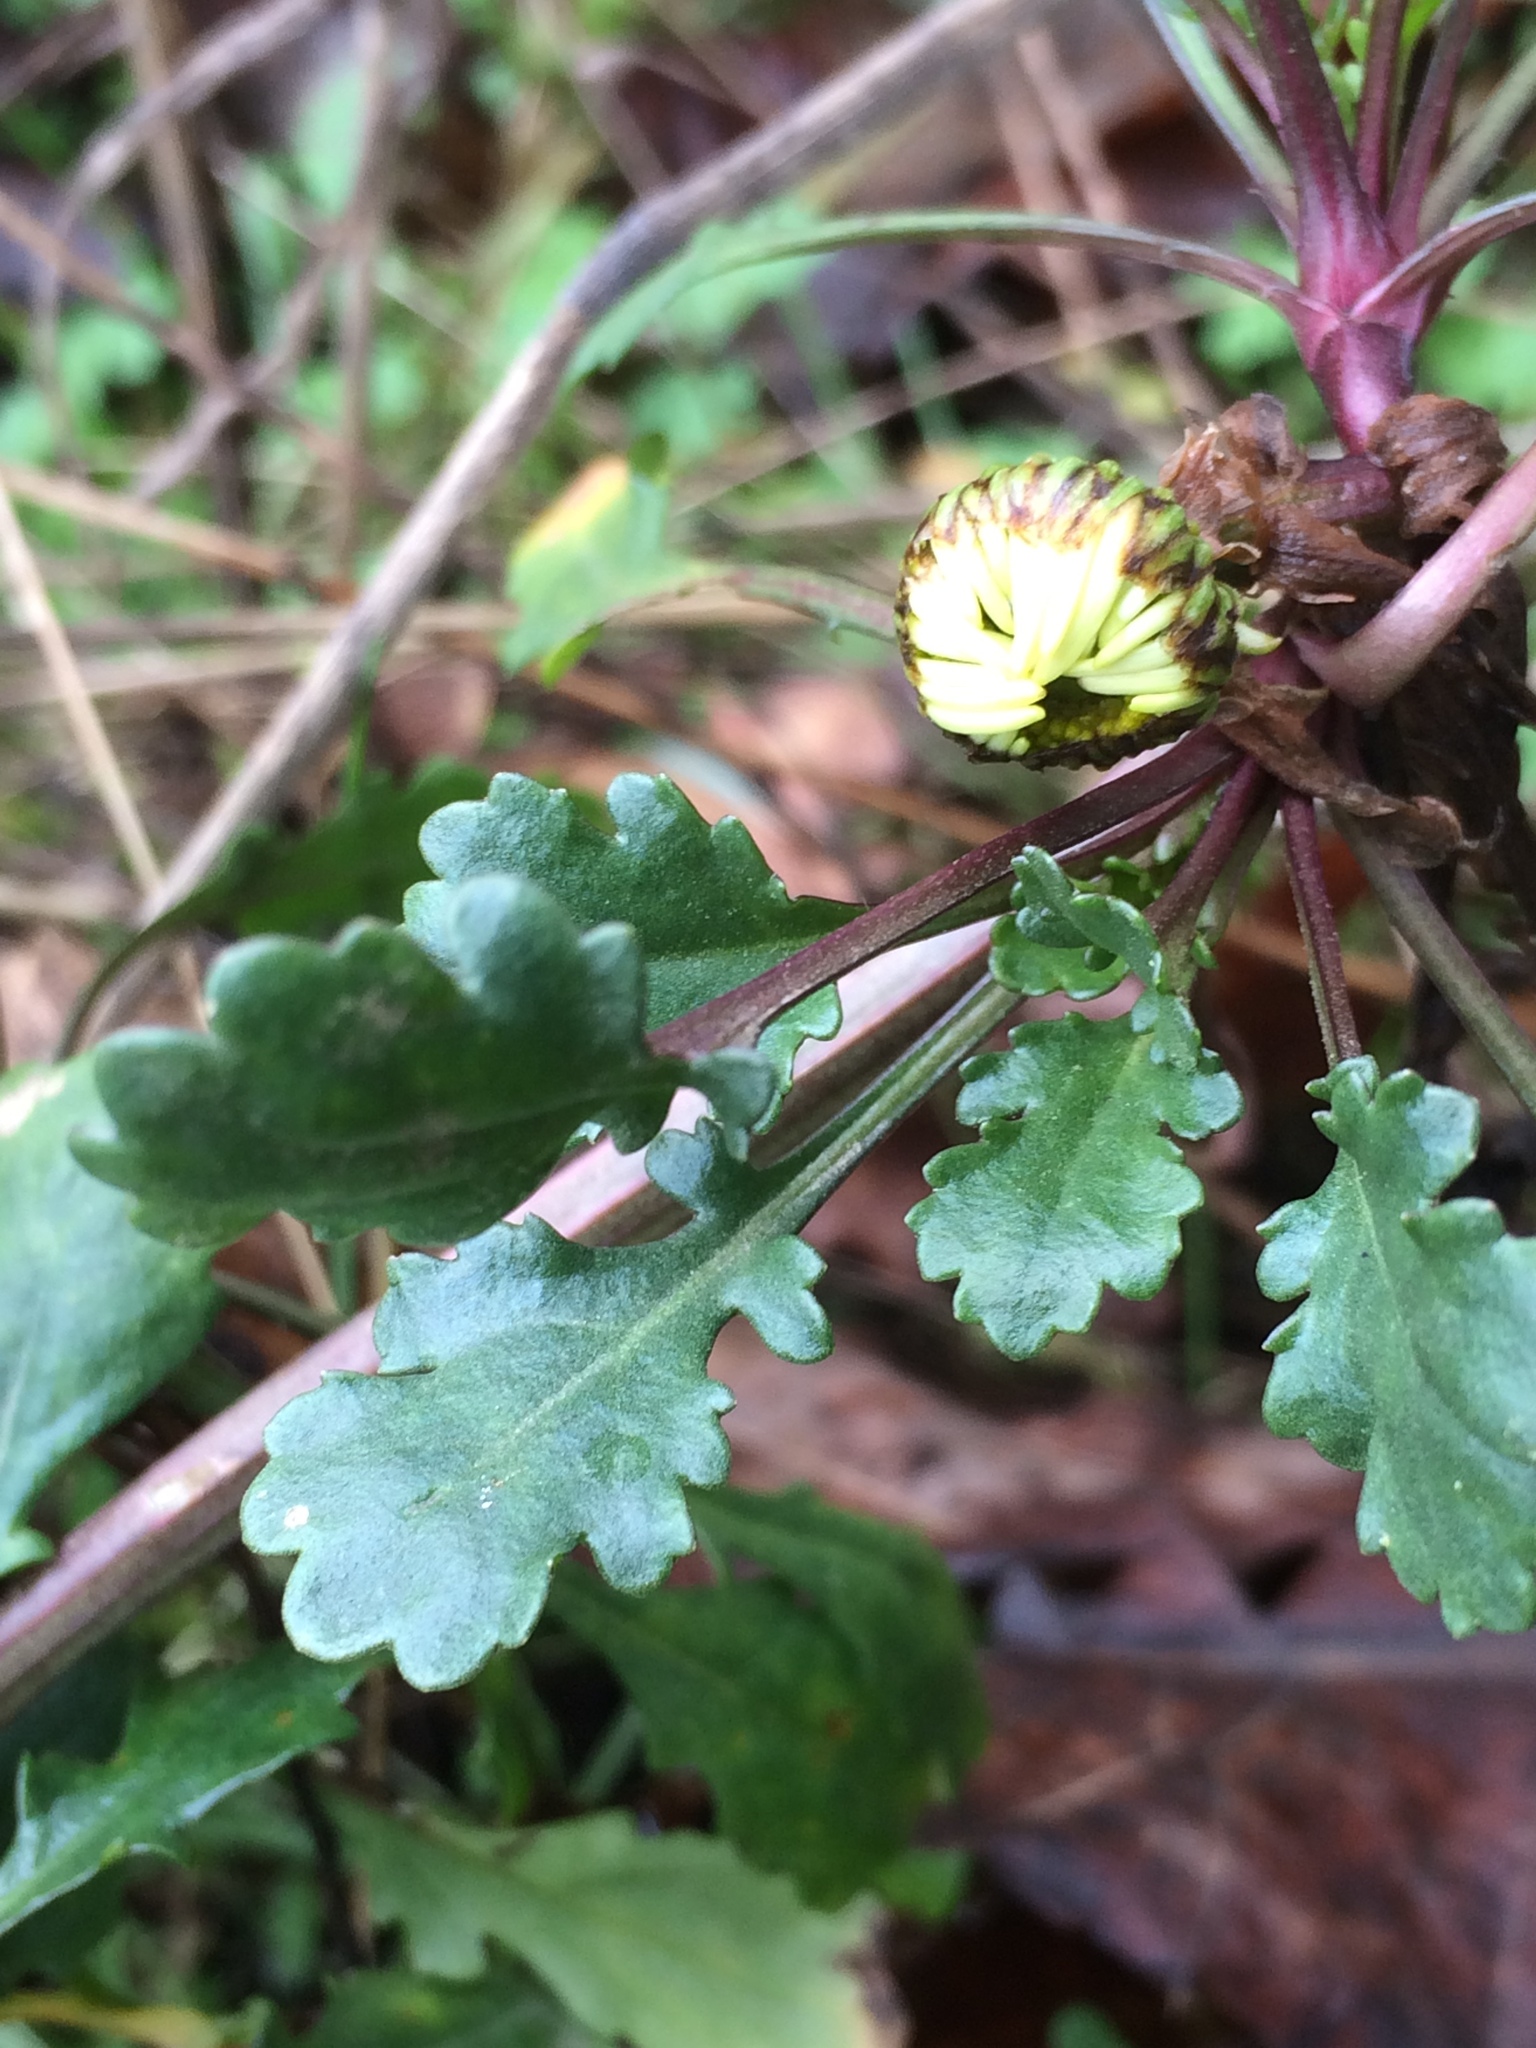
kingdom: Plantae
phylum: Tracheophyta
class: Magnoliopsida
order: Asterales
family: Asteraceae
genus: Leucanthemum
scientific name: Leucanthemum vulgare
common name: Oxeye daisy
